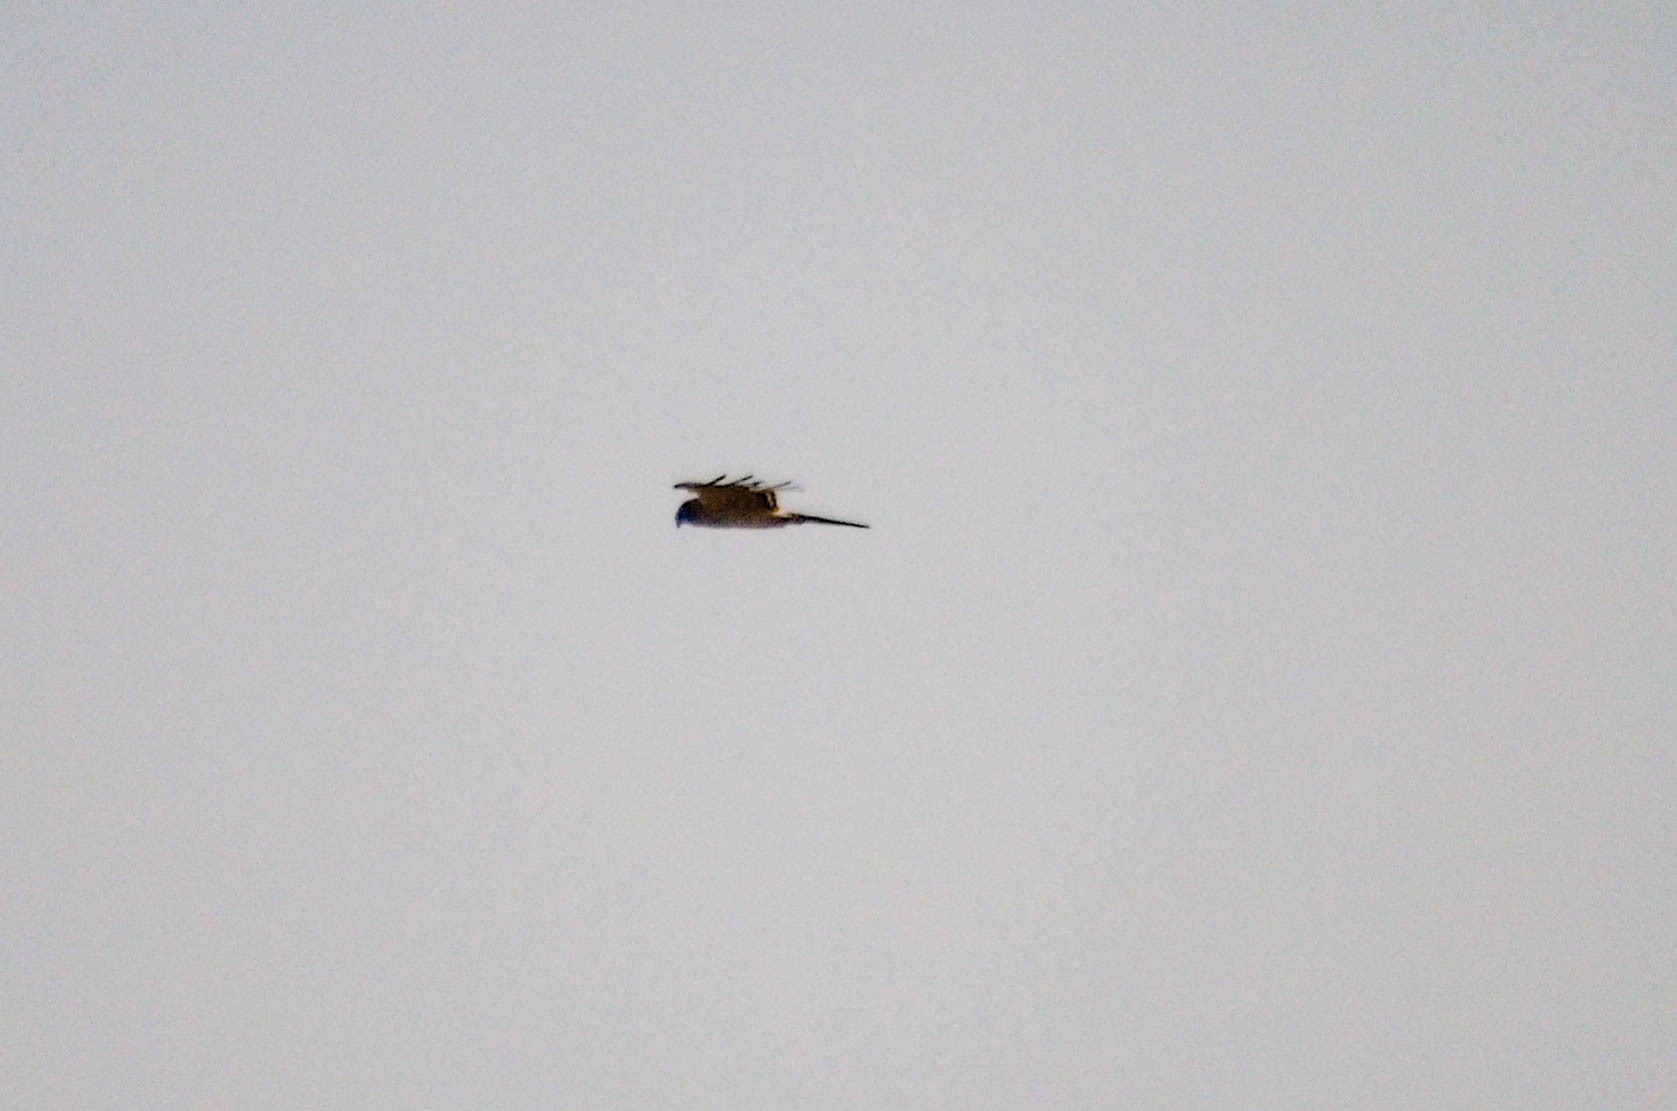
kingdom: Animalia
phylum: Chordata
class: Aves
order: Falconiformes
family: Falconidae
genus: Falco
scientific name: Falco tinnunculus
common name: Common kestrel
